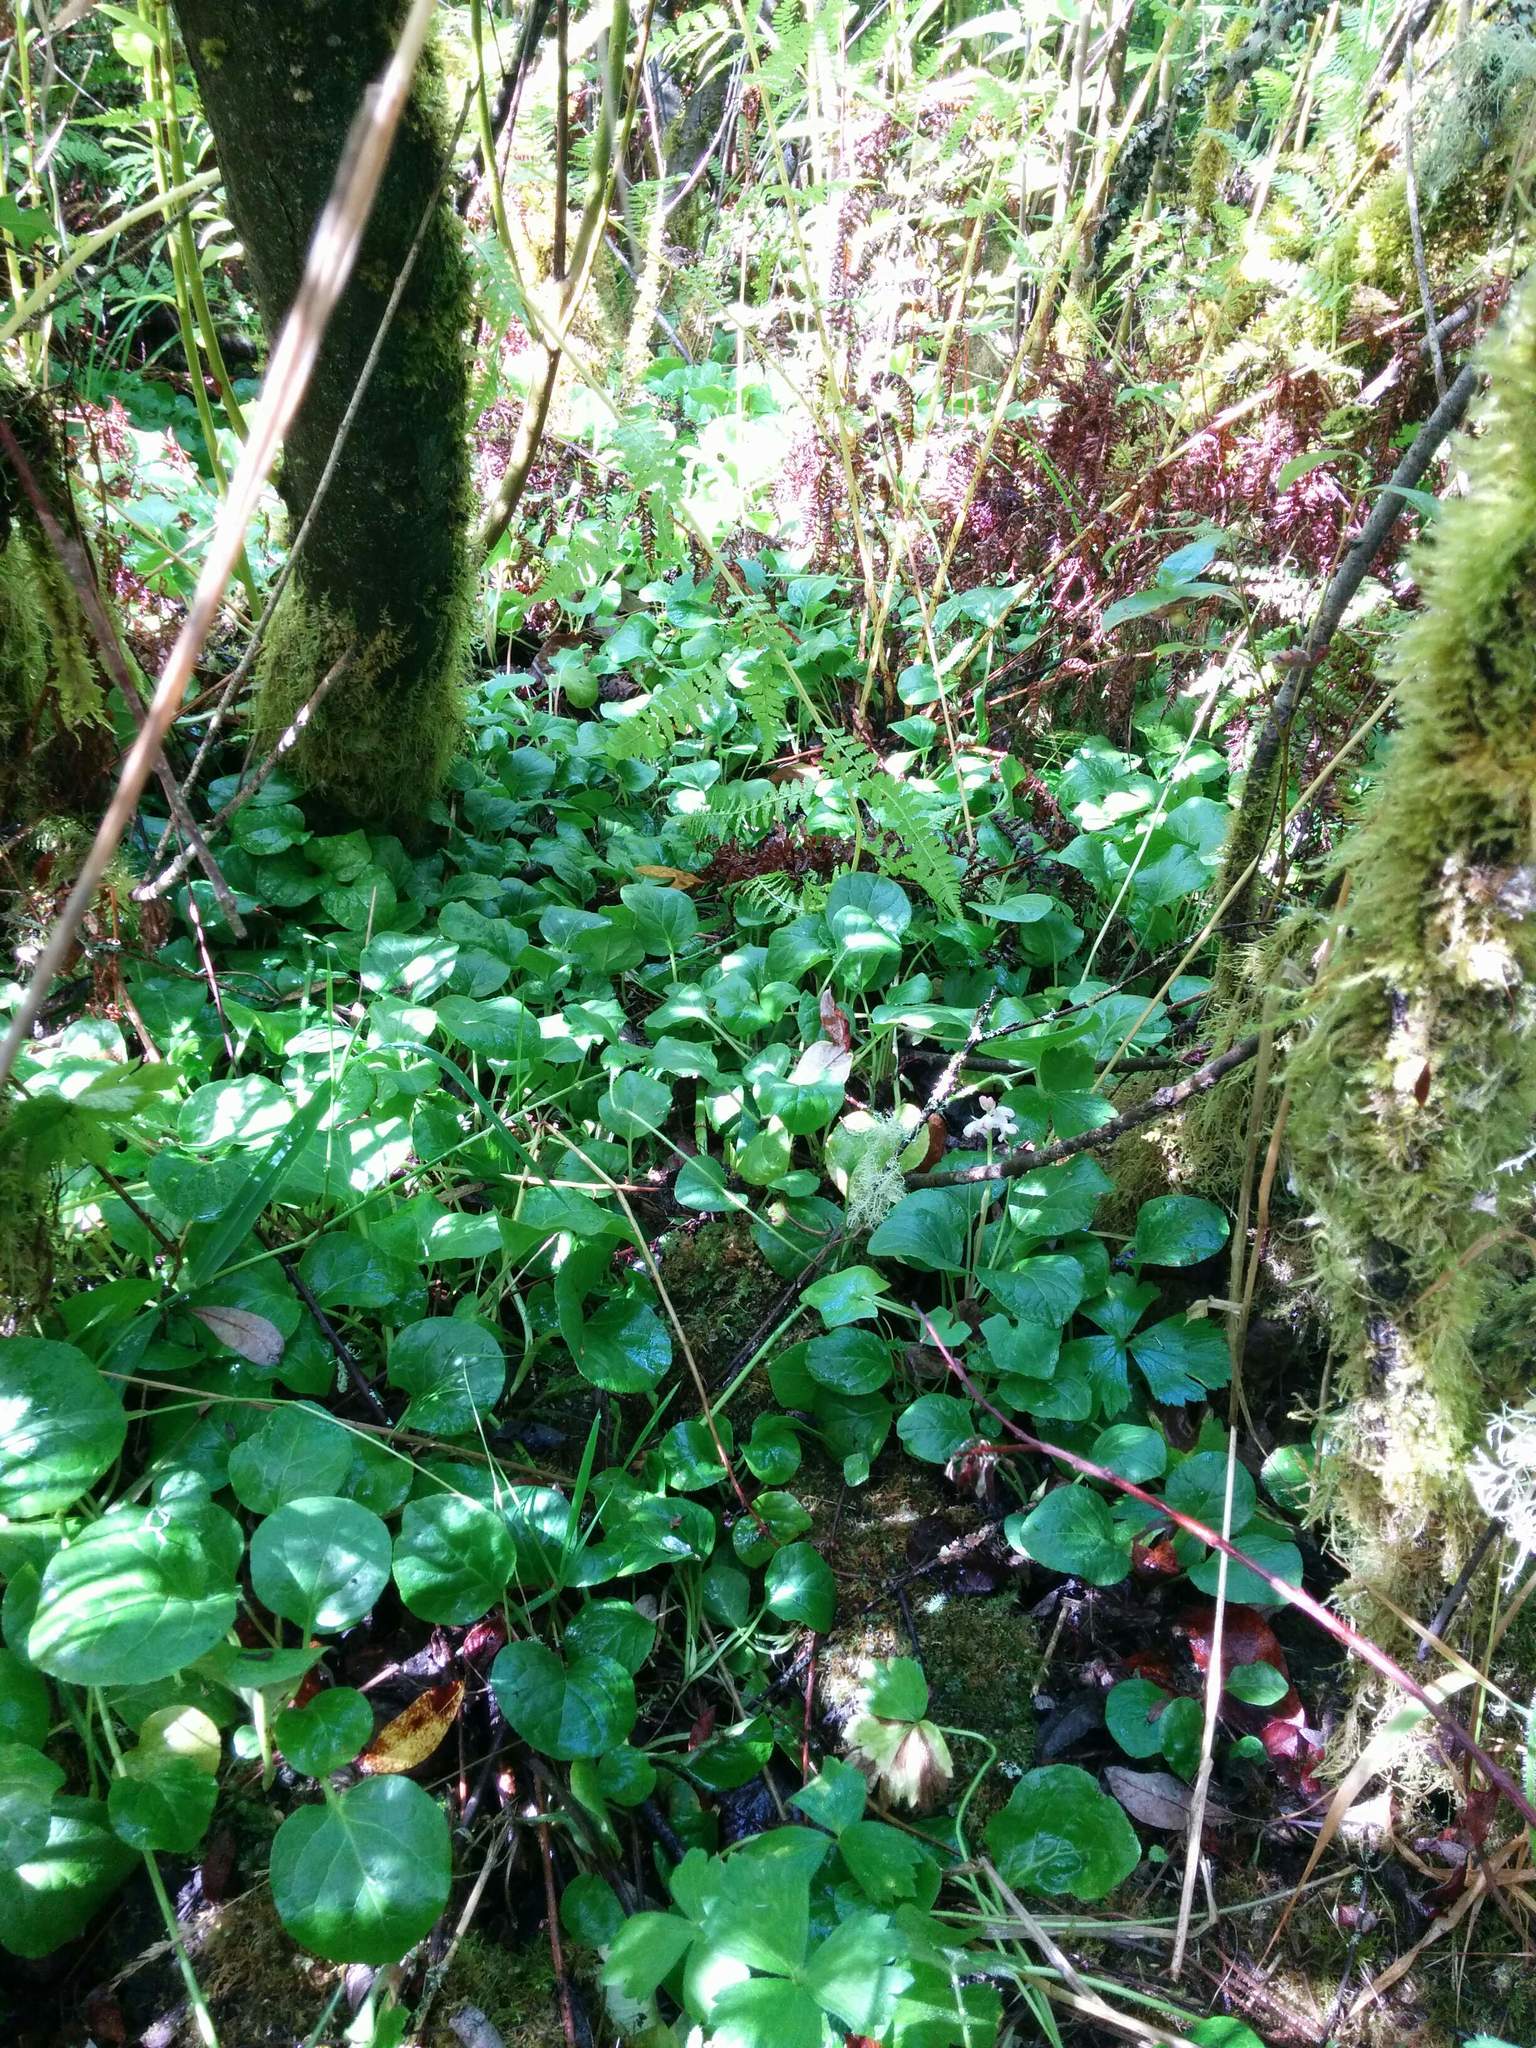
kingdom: Plantae
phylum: Tracheophyta
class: Magnoliopsida
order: Ericales
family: Ericaceae
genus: Pyrola
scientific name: Pyrola asarifolia
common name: Bog wintergreen
